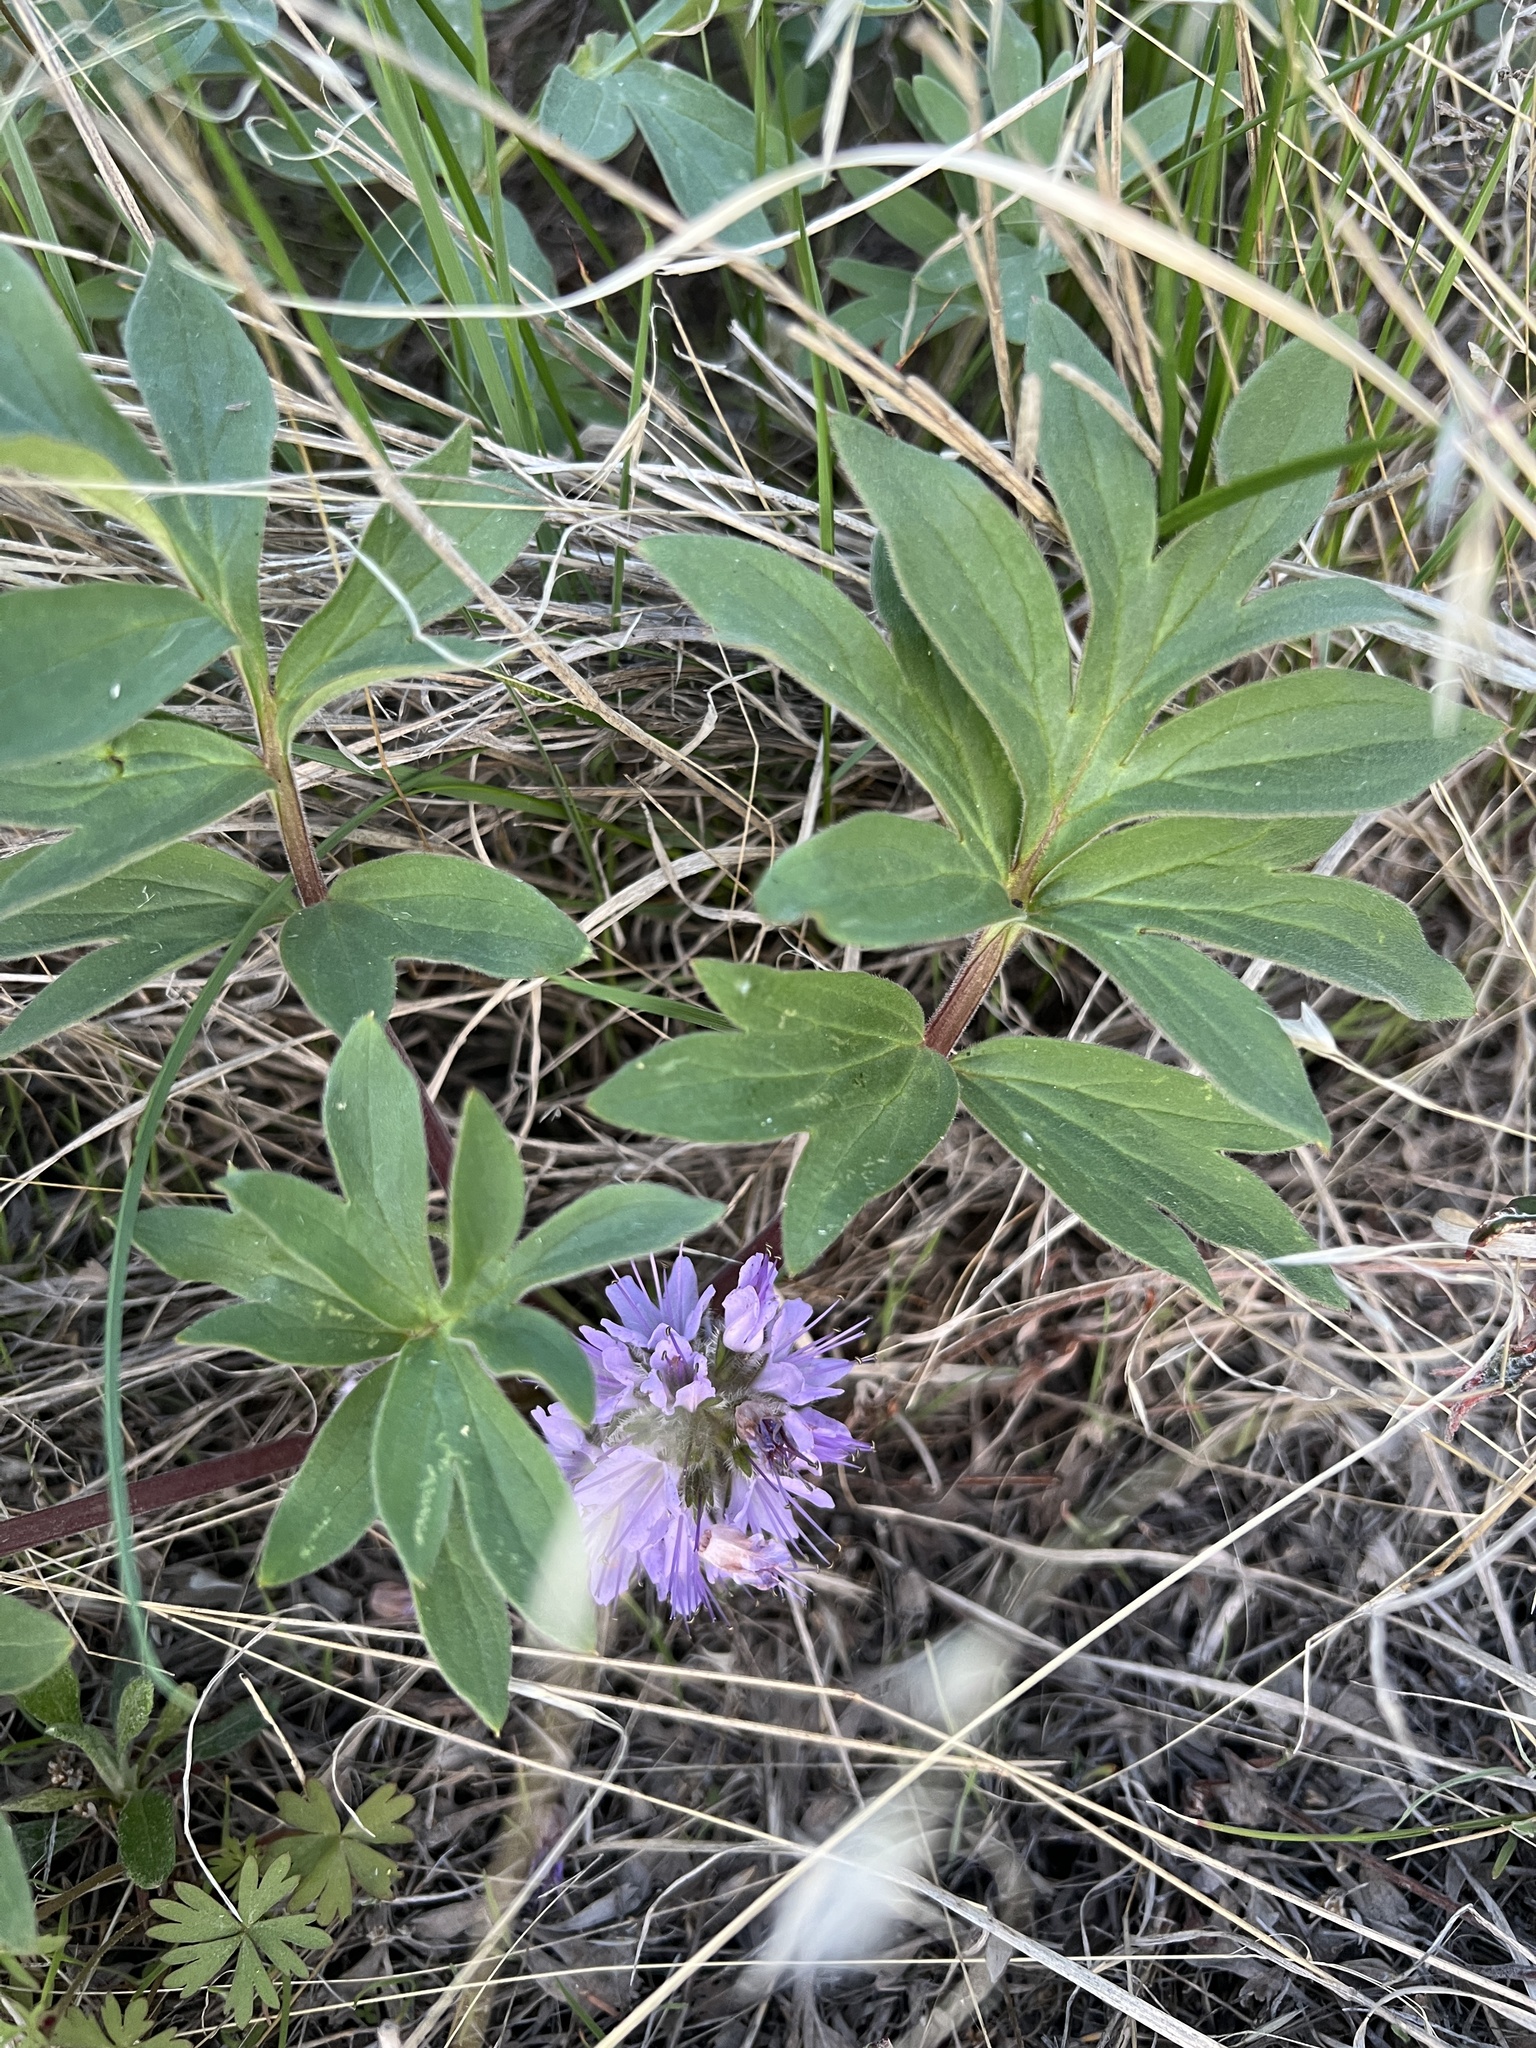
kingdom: Plantae
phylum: Tracheophyta
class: Magnoliopsida
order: Boraginales
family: Hydrophyllaceae
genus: Hydrophyllum
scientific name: Hydrophyllum capitatum
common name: Woollen-breeches
